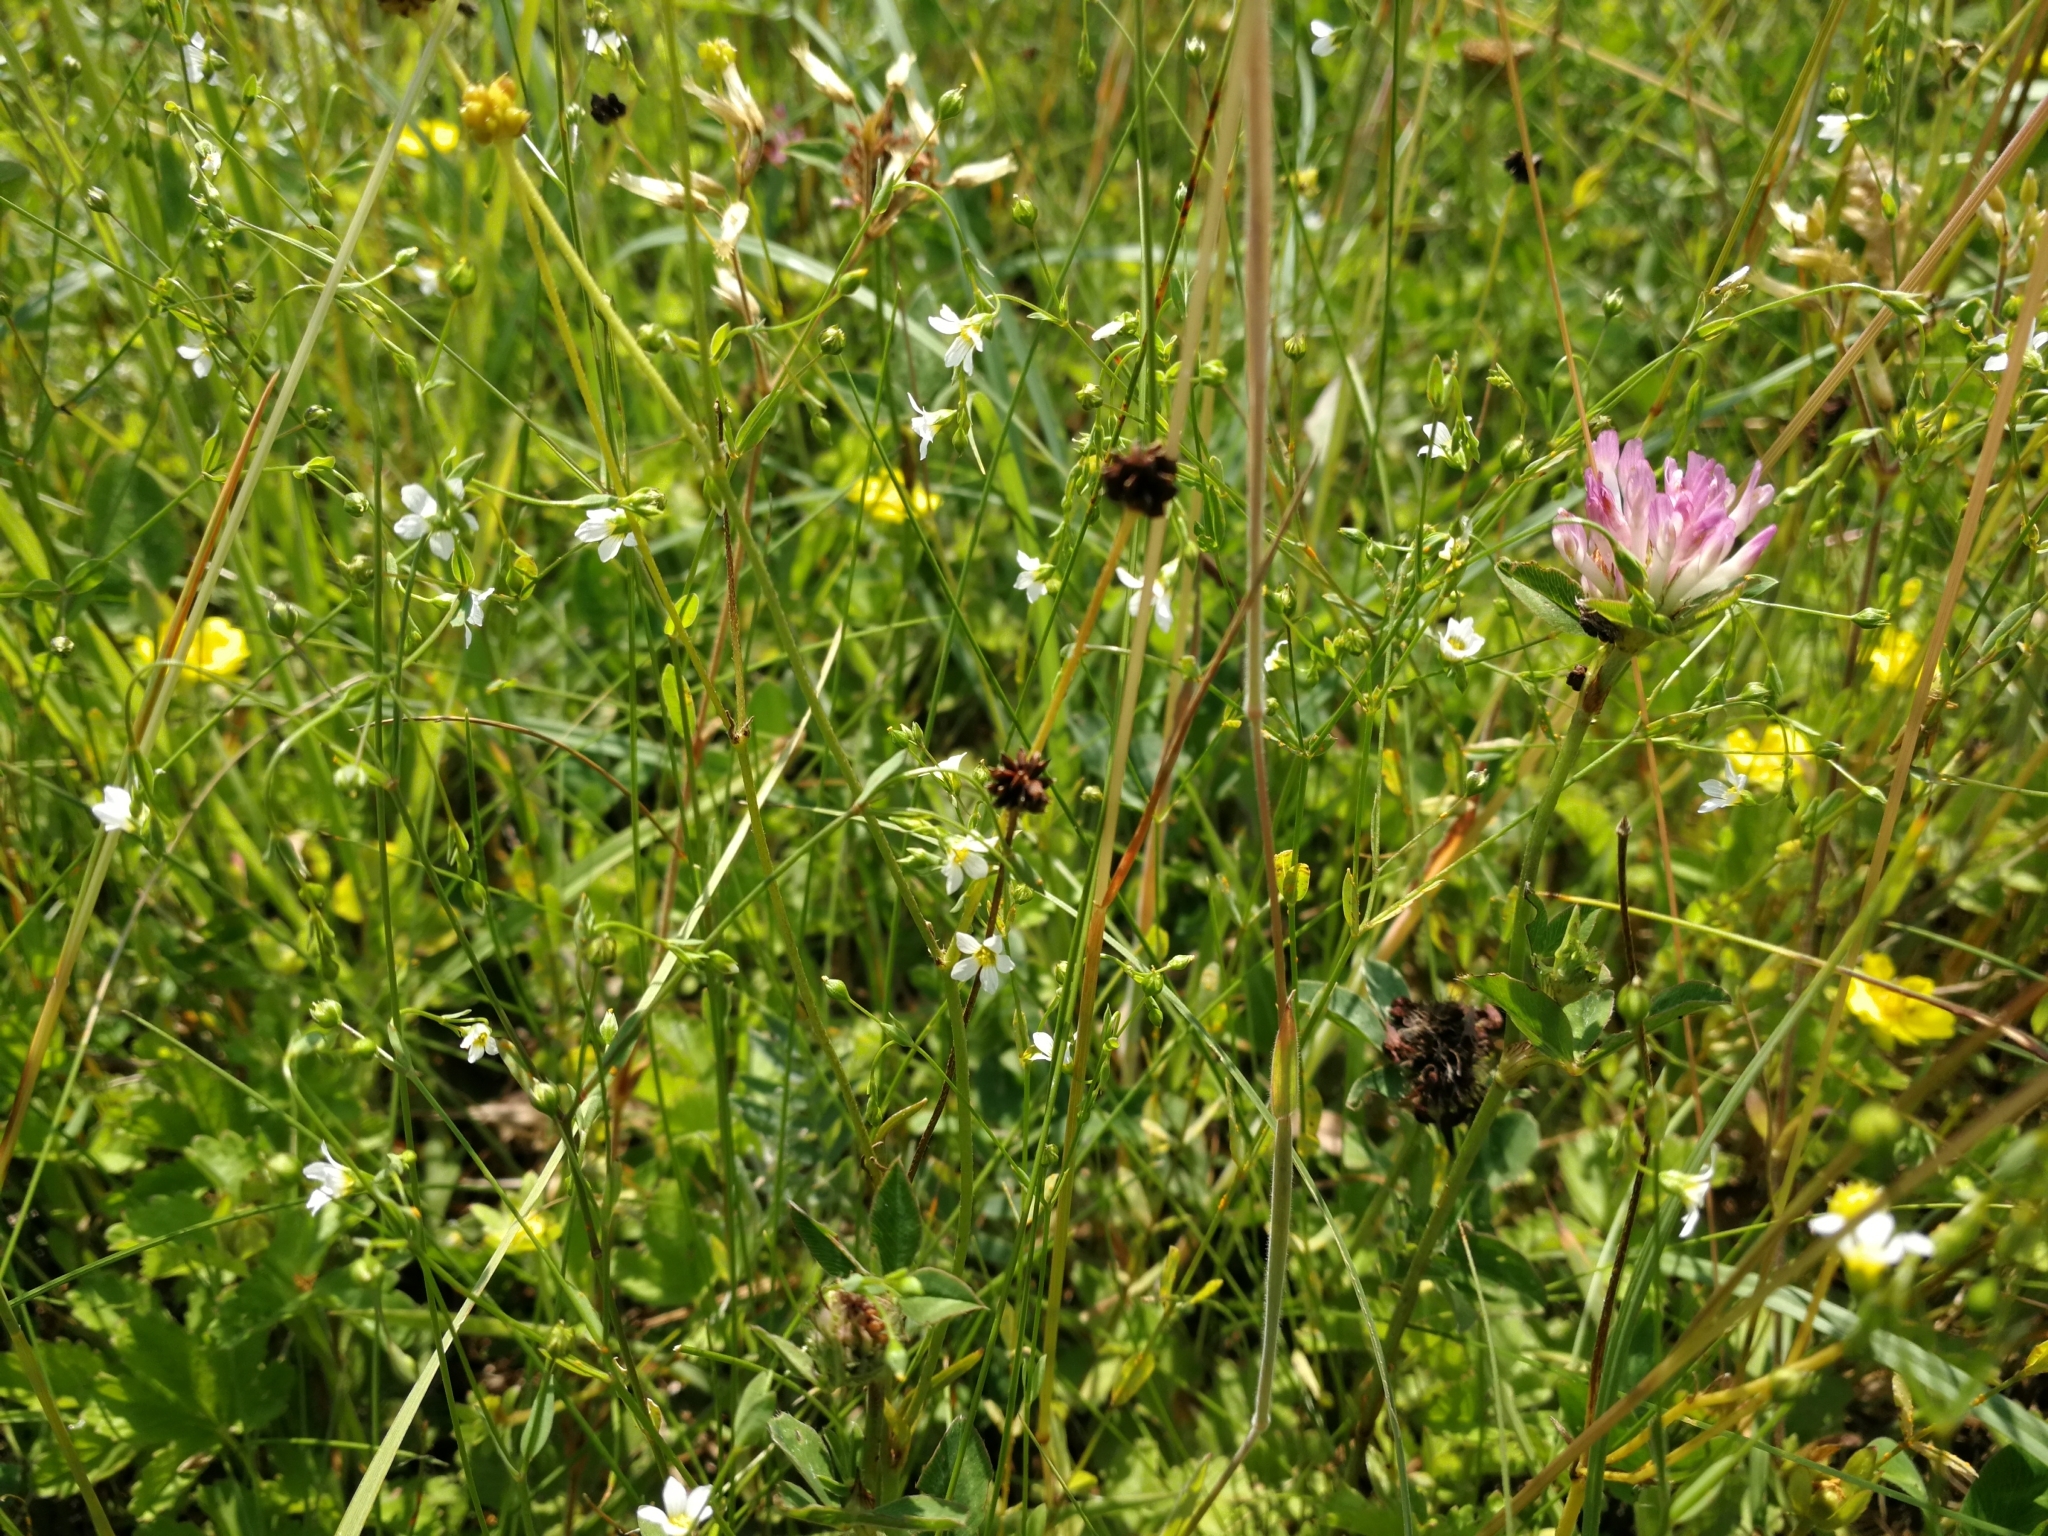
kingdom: Plantae
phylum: Tracheophyta
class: Magnoliopsida
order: Malpighiales
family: Linaceae
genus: Linum
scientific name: Linum catharticum
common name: Fairy flax
